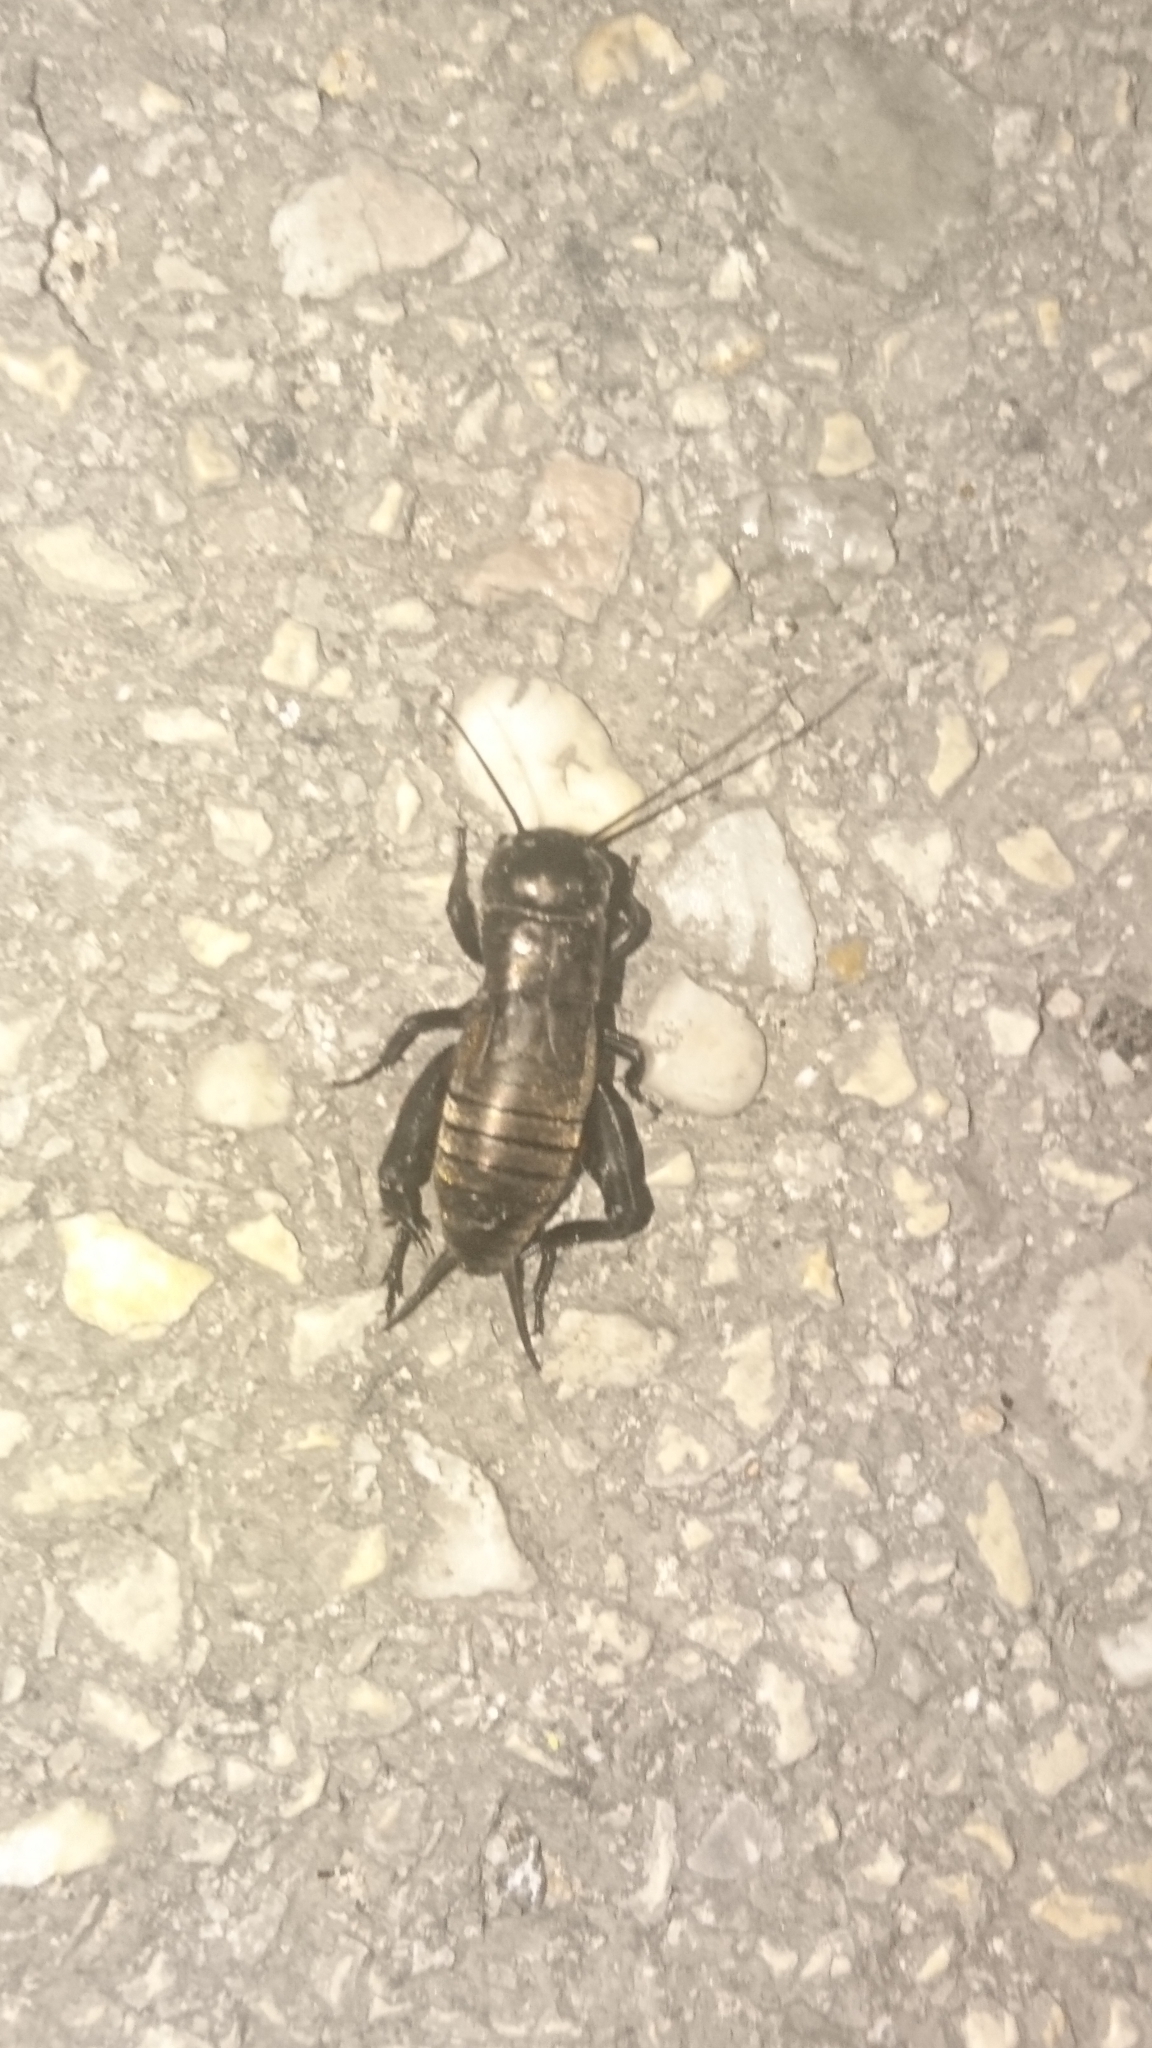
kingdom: Animalia
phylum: Arthropoda
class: Insecta
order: Orthoptera
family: Gryllidae
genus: Gryllus
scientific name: Gryllus campestris
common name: Field cricket
